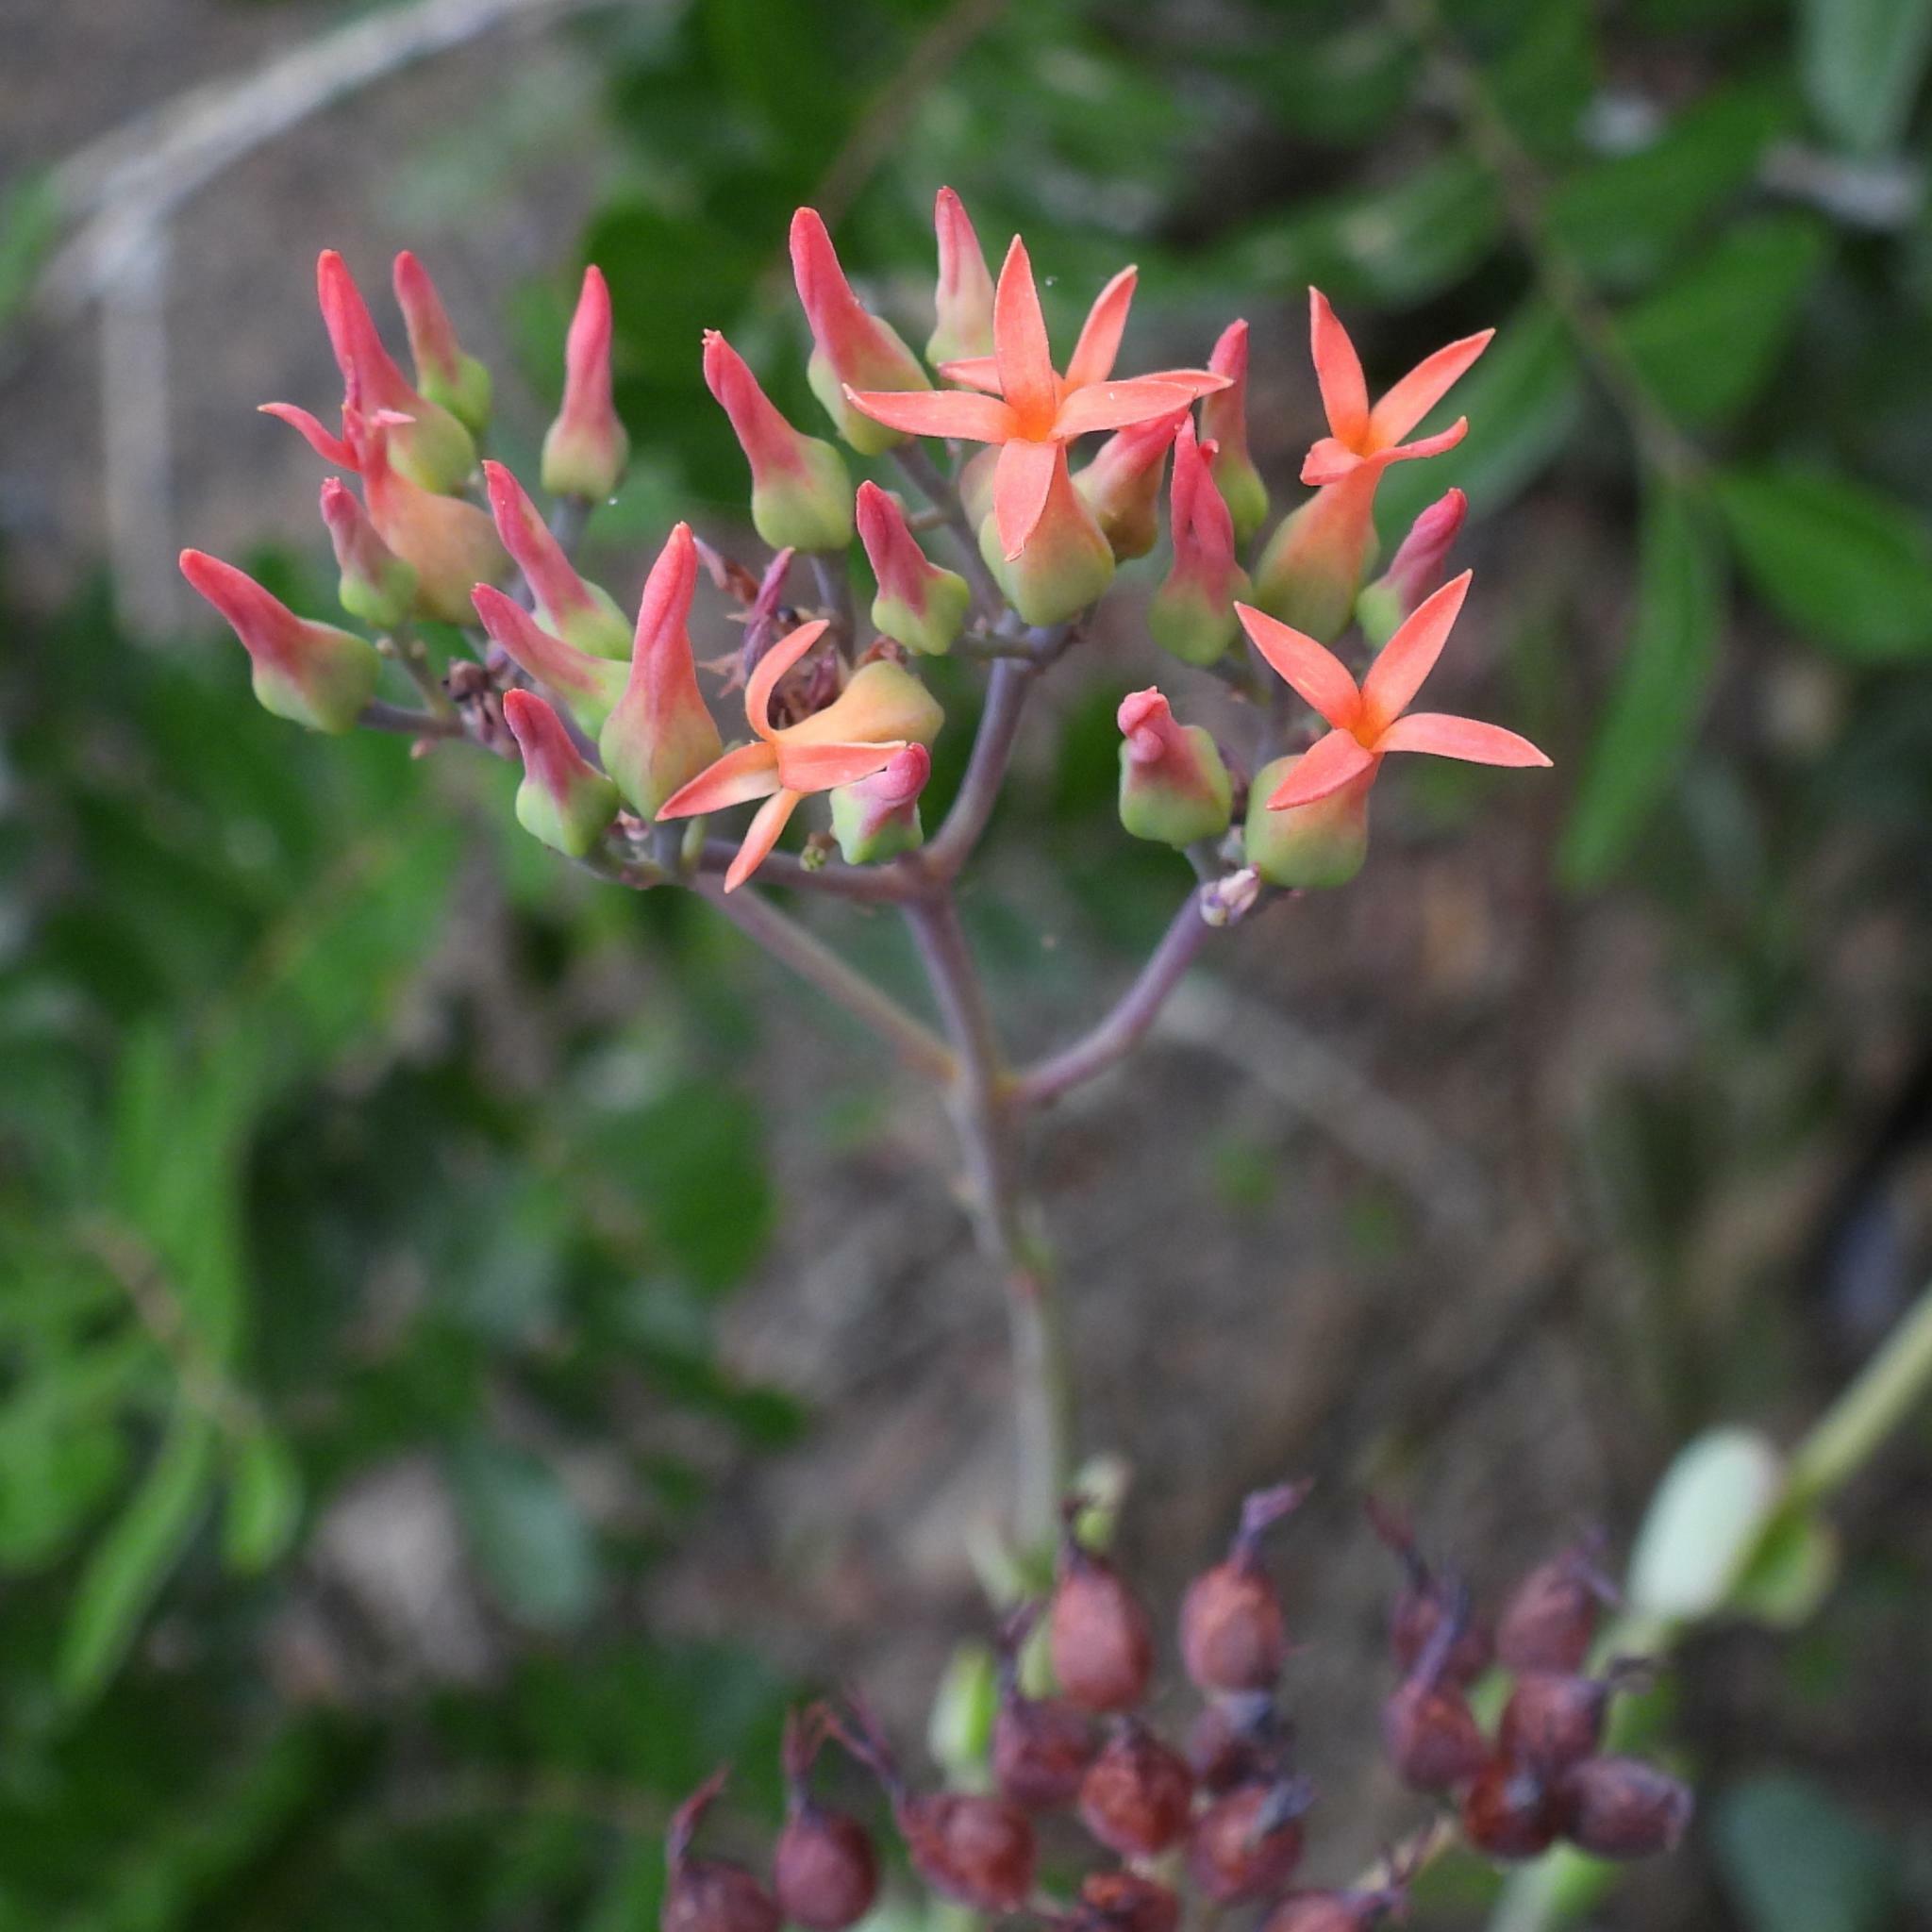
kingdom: Plantae
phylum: Tracheophyta
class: Magnoliopsida
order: Saxifragales
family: Crassulaceae
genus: Kalanchoe
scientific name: Kalanchoe rotundifolia
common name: Common kalanchoe
